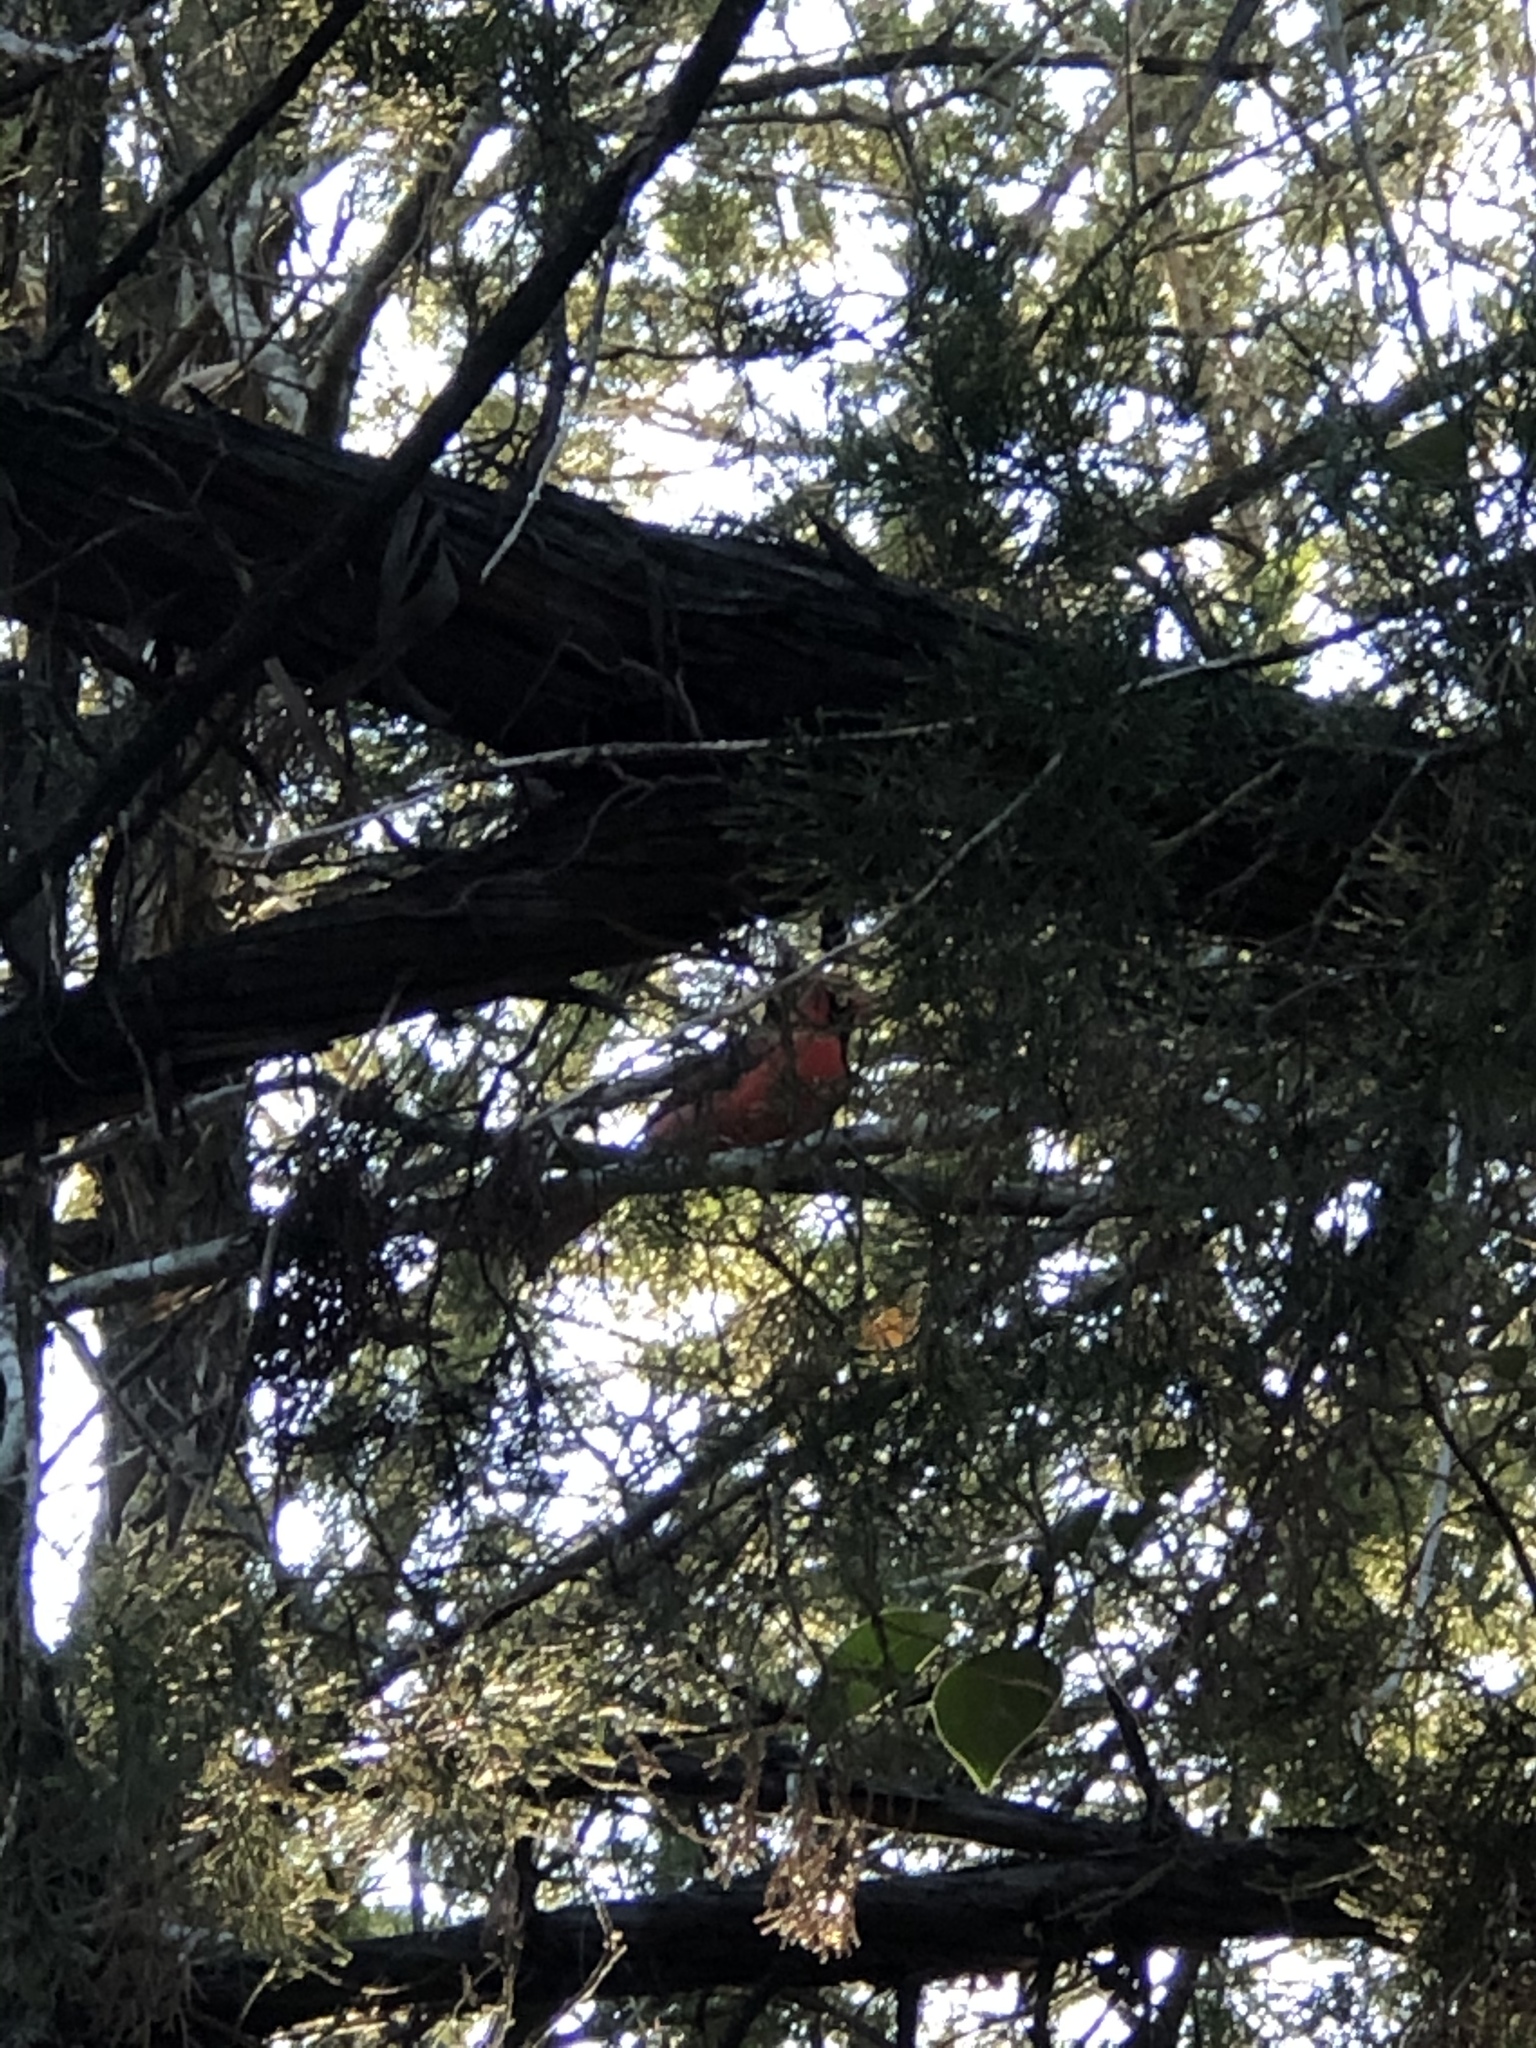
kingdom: Animalia
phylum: Chordata
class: Aves
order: Passeriformes
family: Cardinalidae
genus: Cardinalis
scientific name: Cardinalis cardinalis
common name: Northern cardinal
